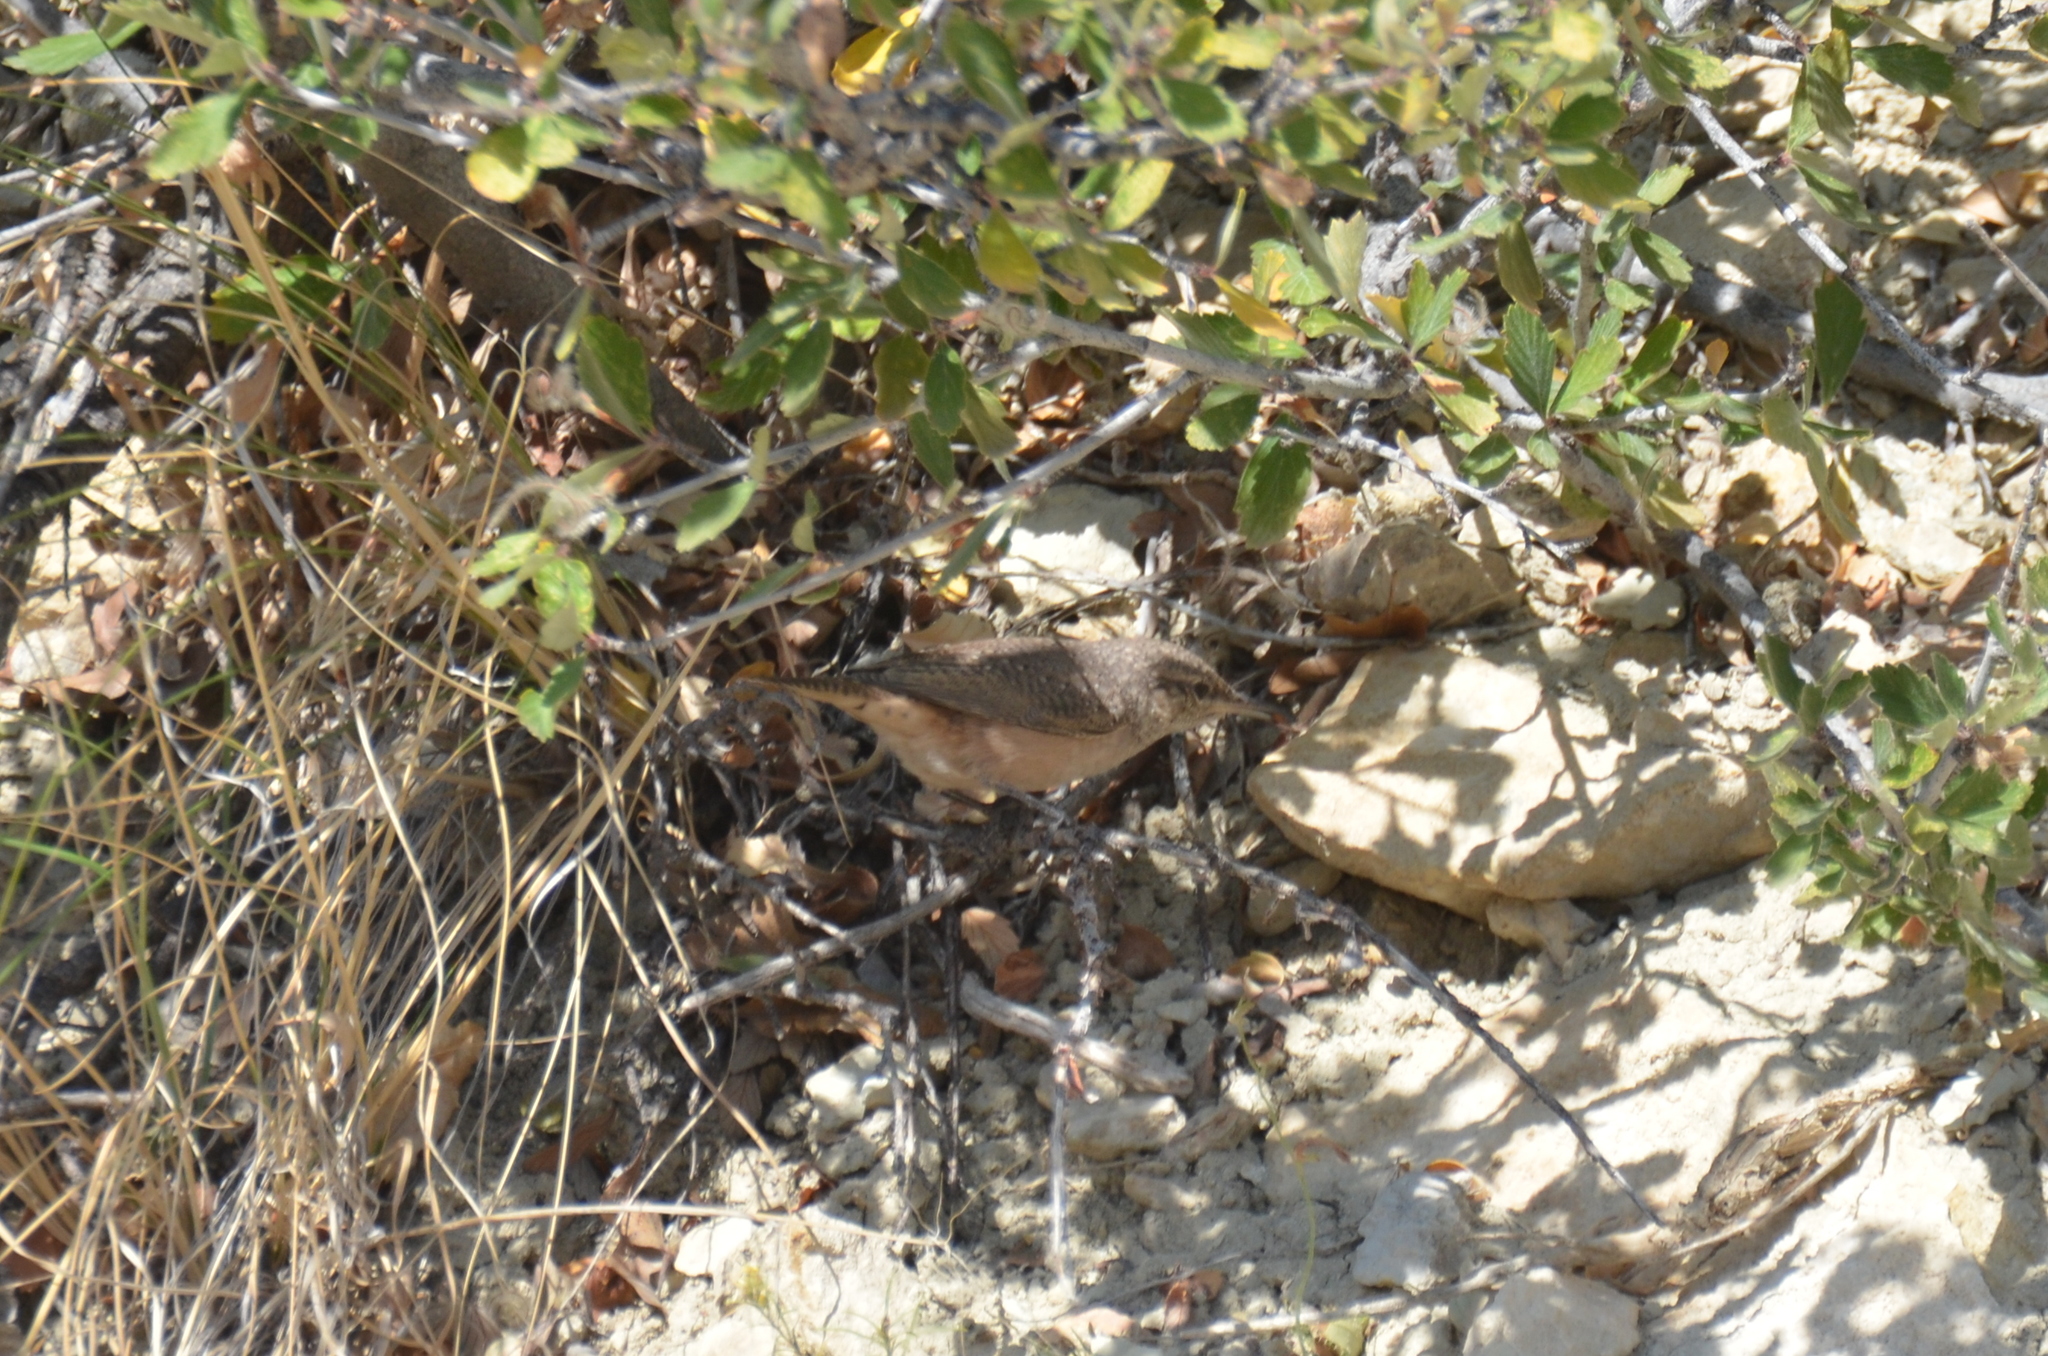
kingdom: Animalia
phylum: Chordata
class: Aves
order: Passeriformes
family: Troglodytidae
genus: Salpinctes
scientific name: Salpinctes obsoletus
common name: Rock wren
